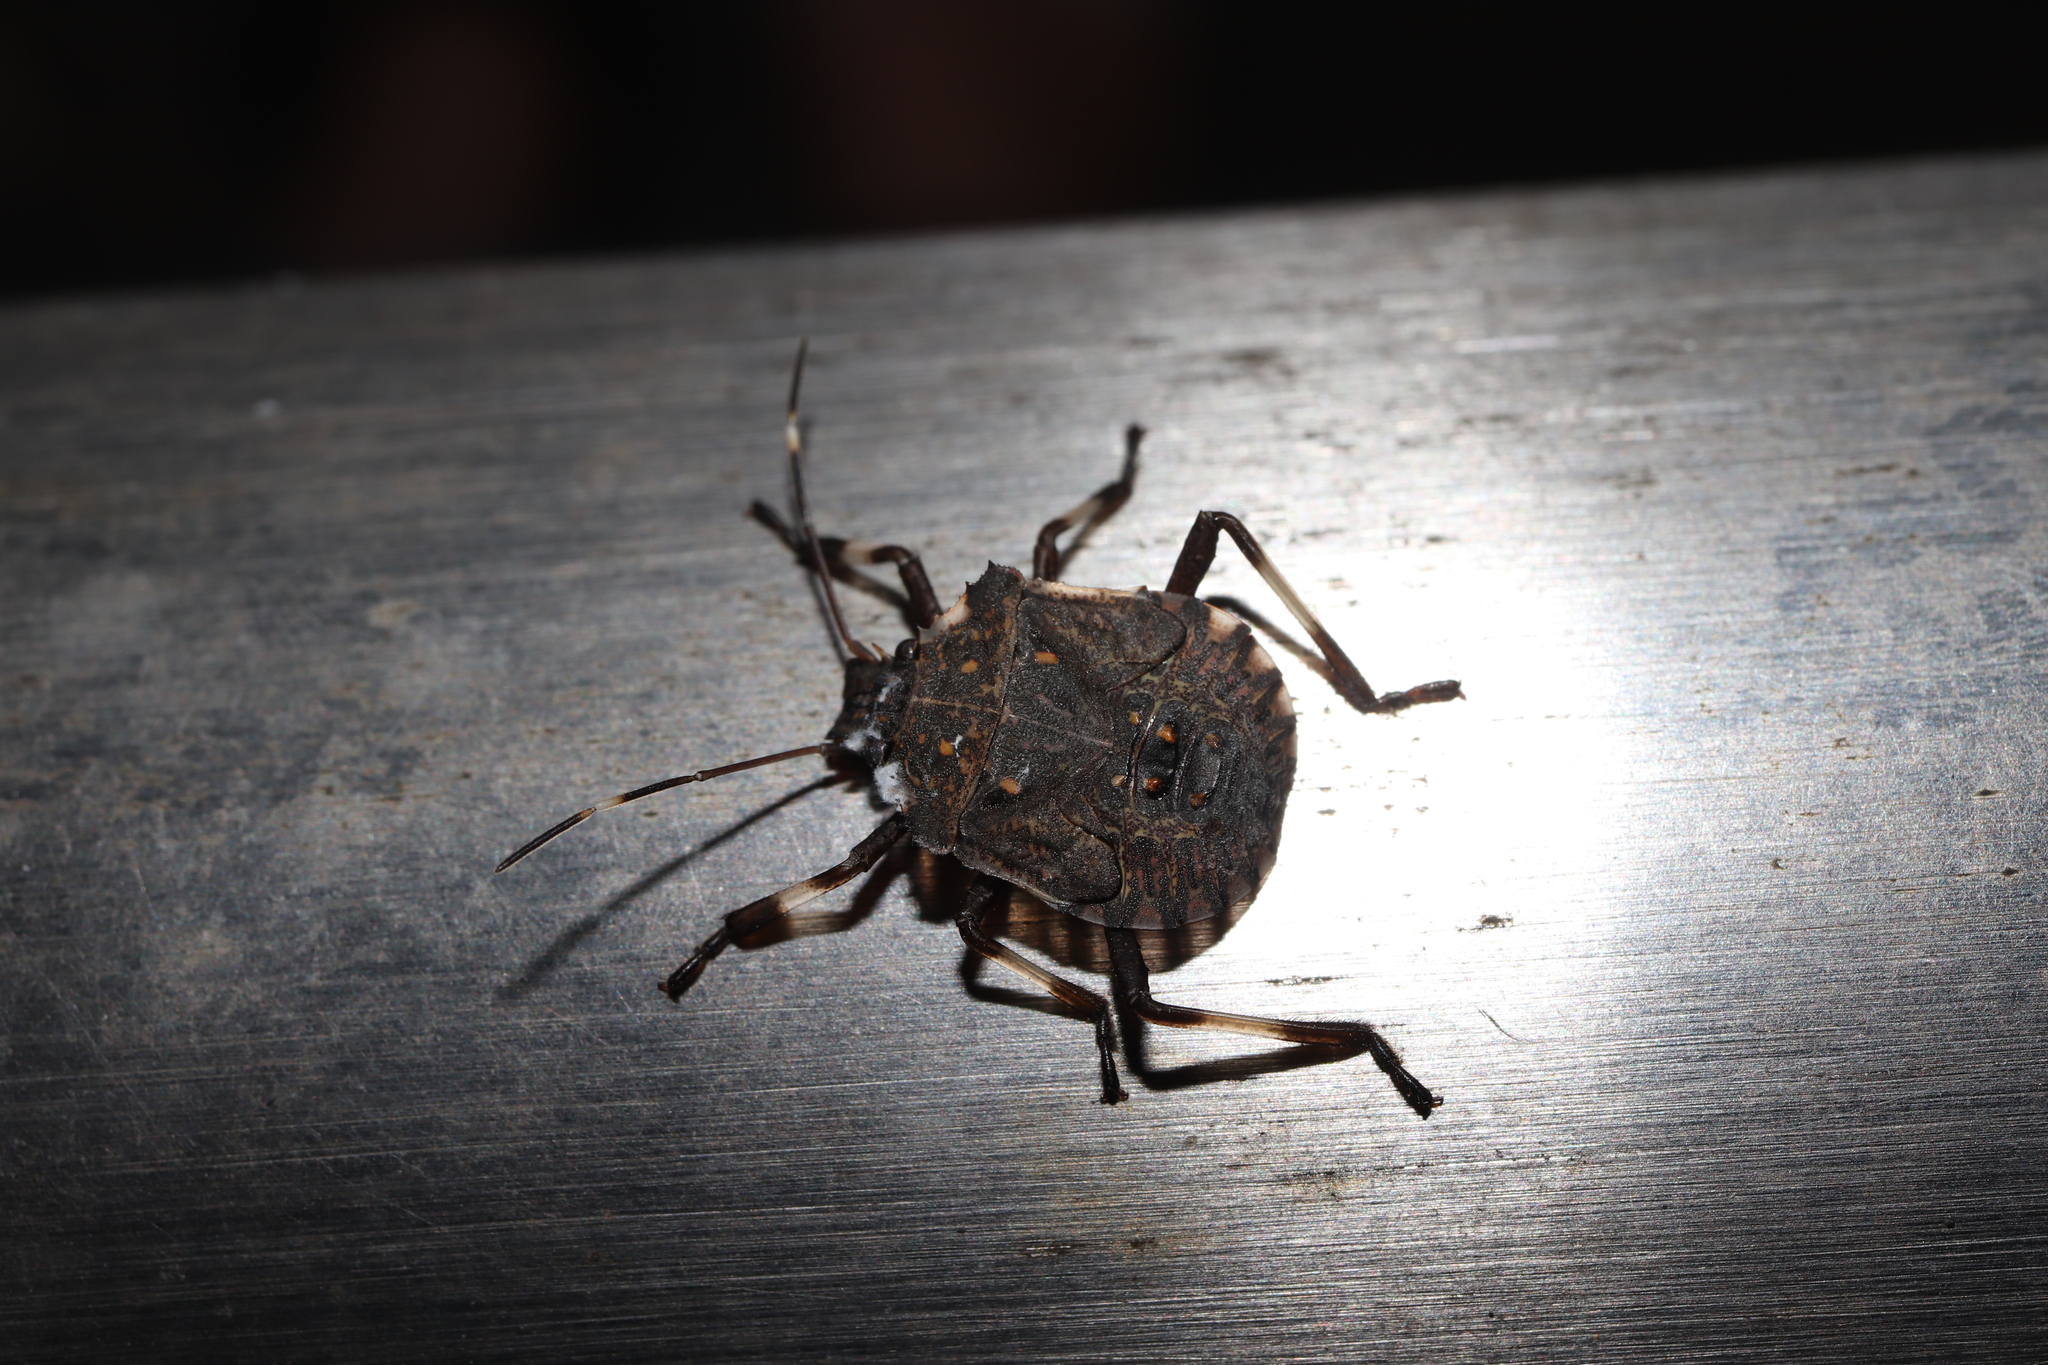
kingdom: Animalia
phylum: Arthropoda
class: Insecta
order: Hemiptera
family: Pentatomidae
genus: Halyomorpha
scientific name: Halyomorpha halys
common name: Brown marmorated stink bug
